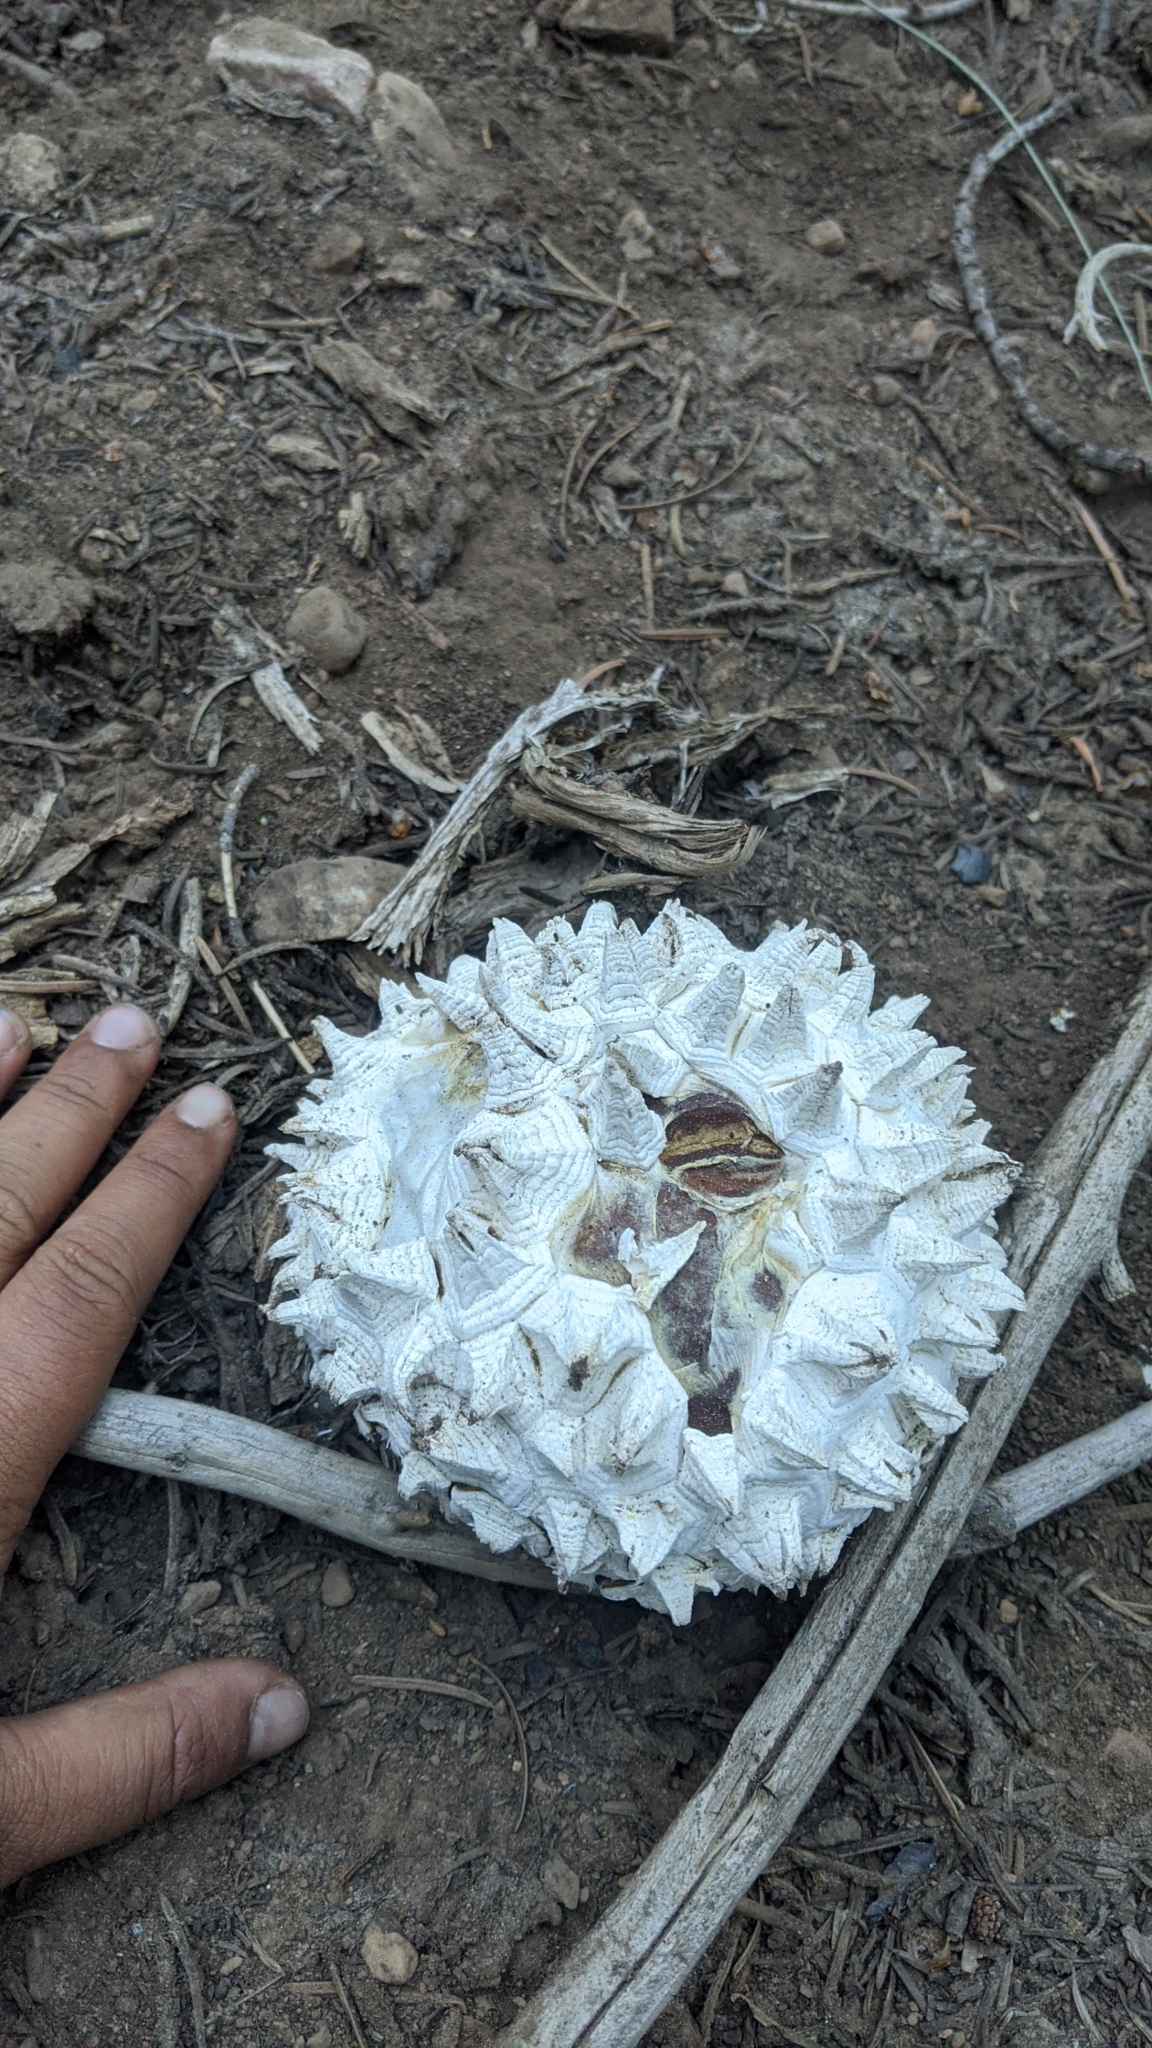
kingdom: Fungi
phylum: Basidiomycota
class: Agaricomycetes
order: Agaricales
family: Lycoperdaceae
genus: Calvatia
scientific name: Calvatia sculpta
